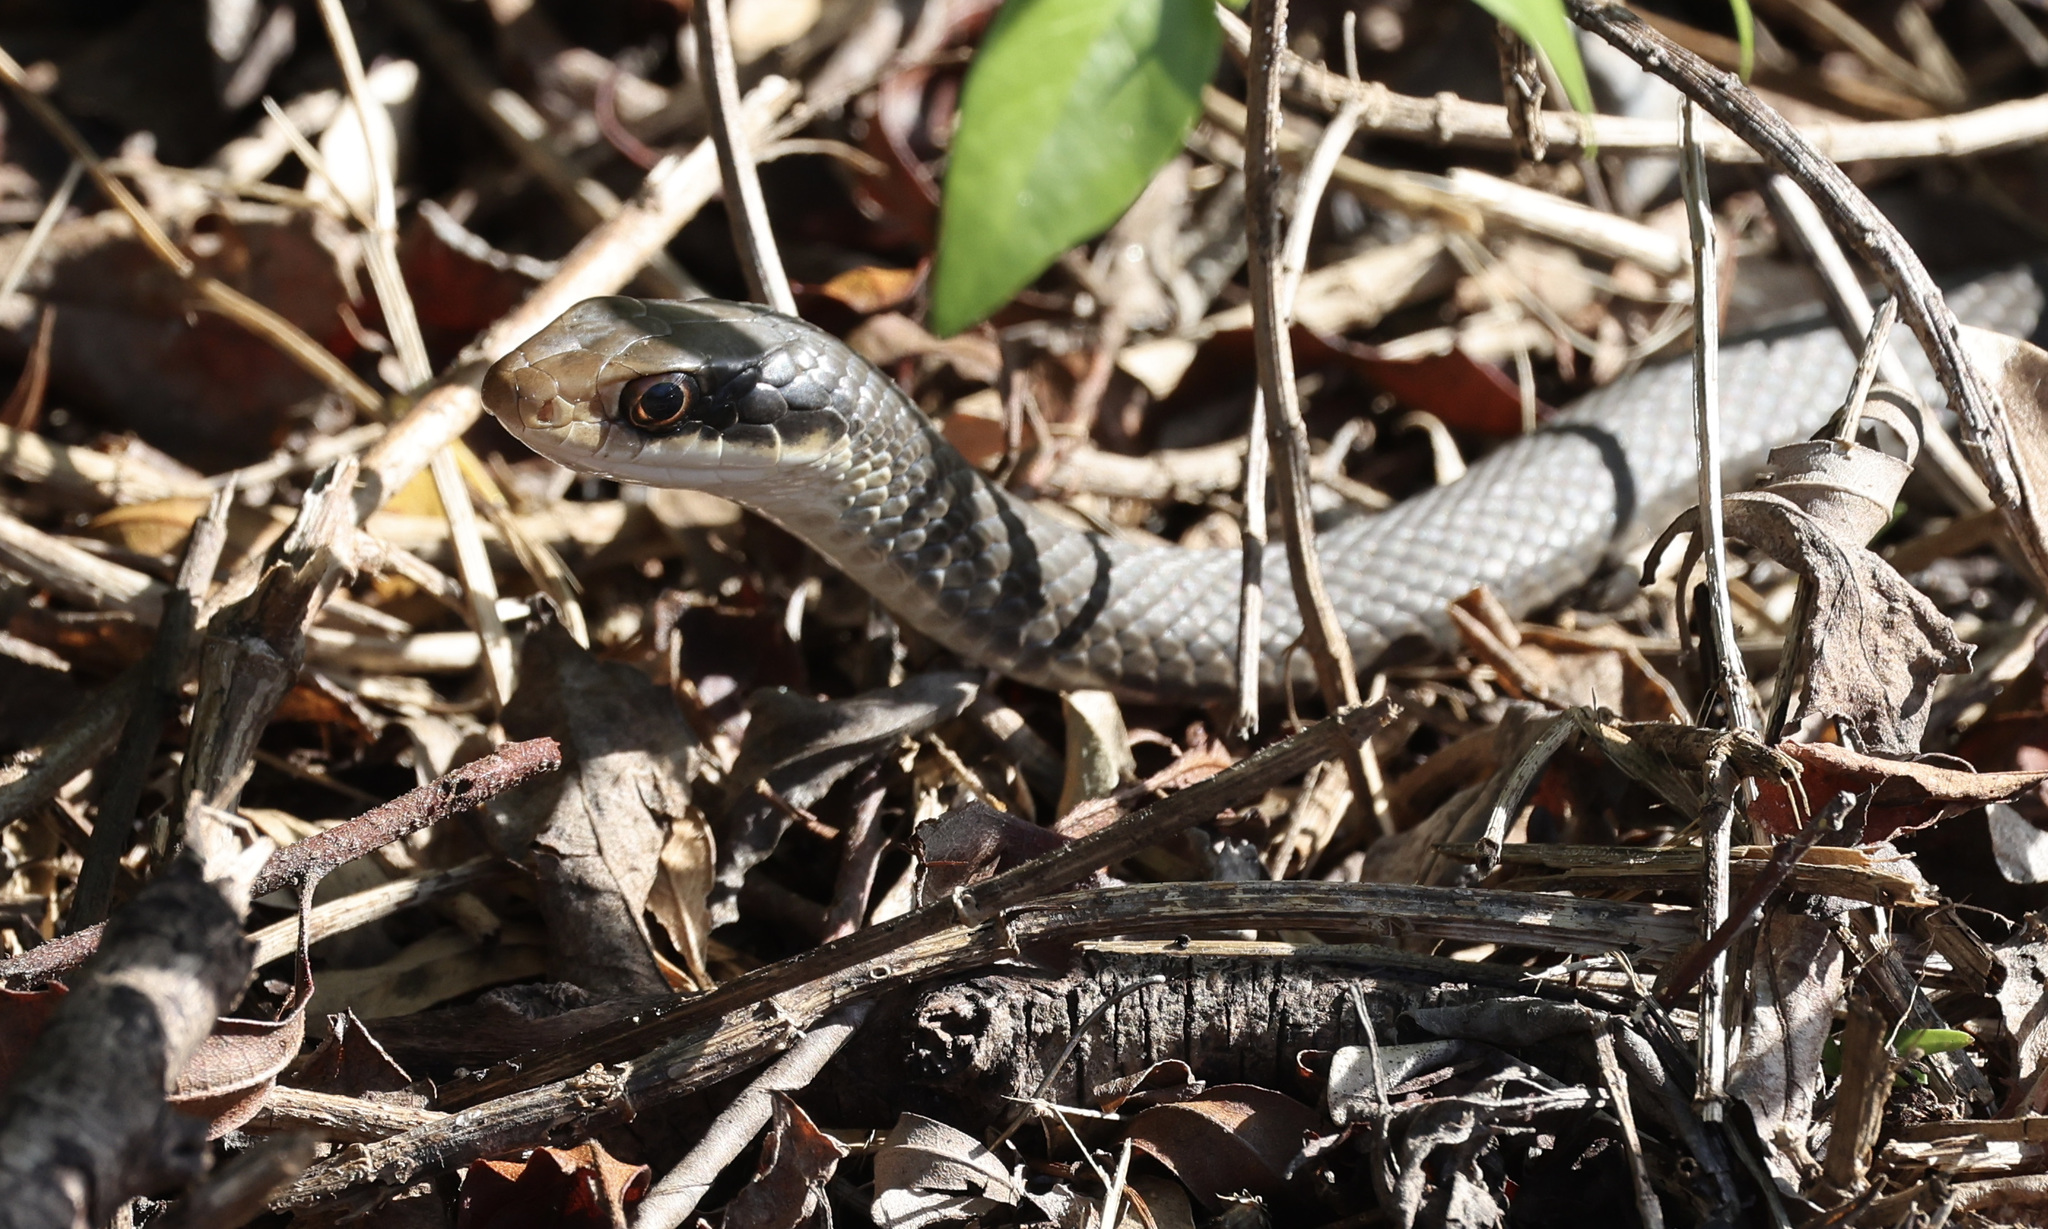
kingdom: Animalia
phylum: Chordata
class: Squamata
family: Colubridae
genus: Coluber
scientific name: Coluber constrictor
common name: Eastern racer
